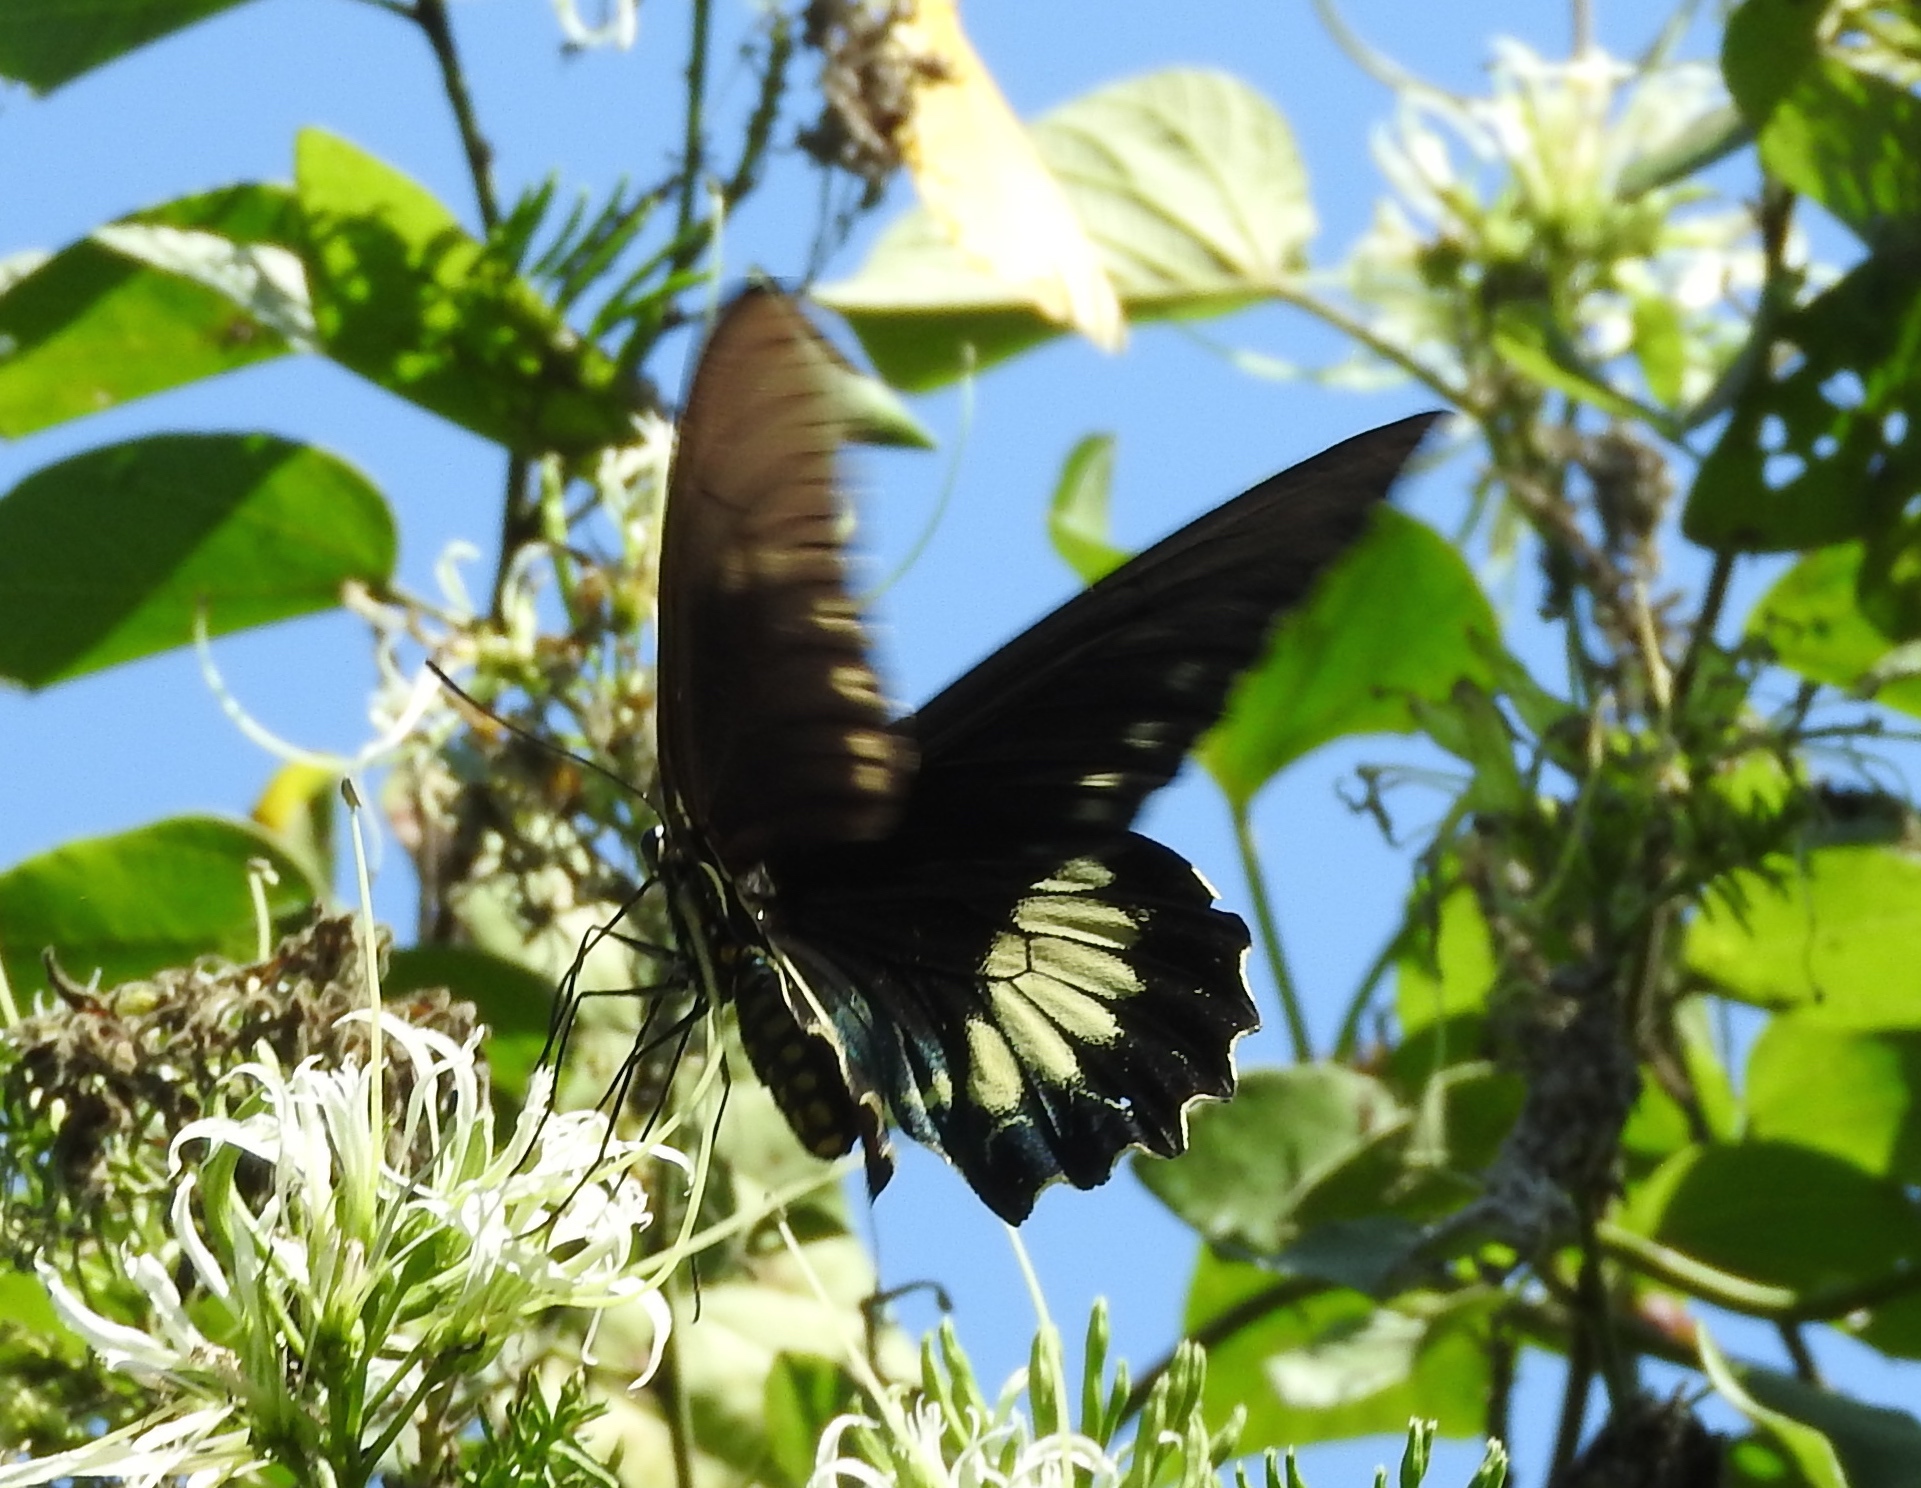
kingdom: Animalia
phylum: Arthropoda
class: Insecta
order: Lepidoptera
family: Papilionidae
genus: Battus
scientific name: Battus laodamas
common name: Green-patch swallowtail
